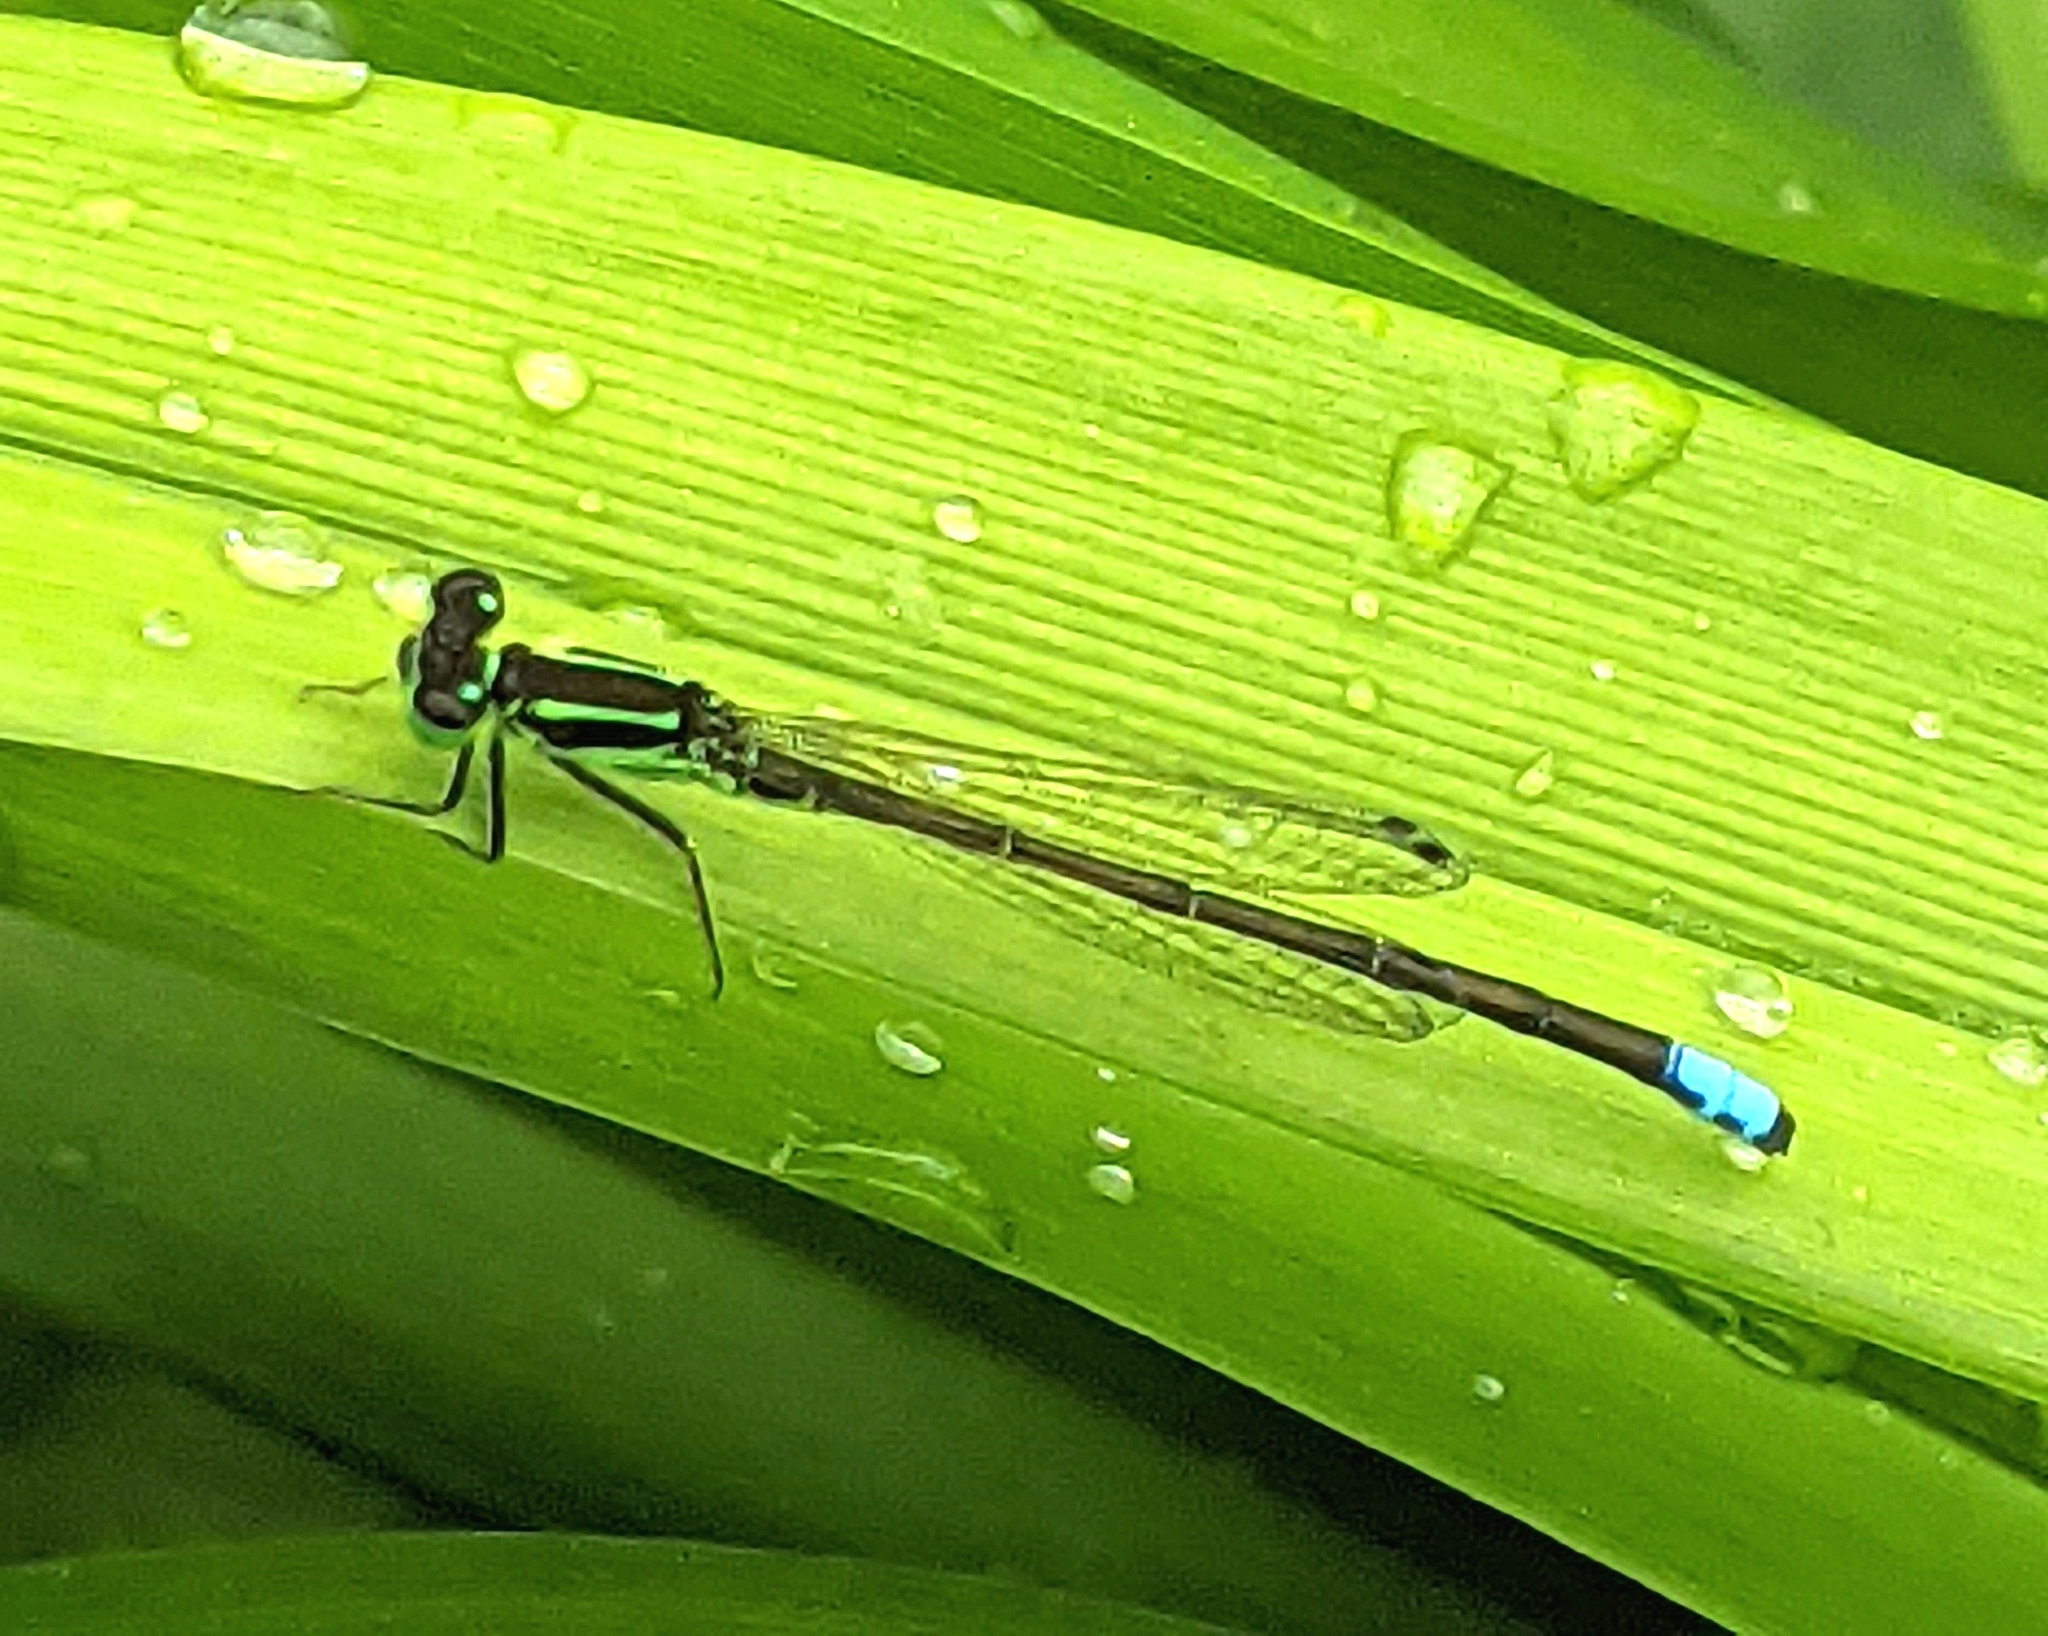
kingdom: Animalia
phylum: Arthropoda
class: Insecta
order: Odonata
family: Coenagrionidae
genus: Ischnura
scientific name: Ischnura verticalis
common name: Eastern forktail
